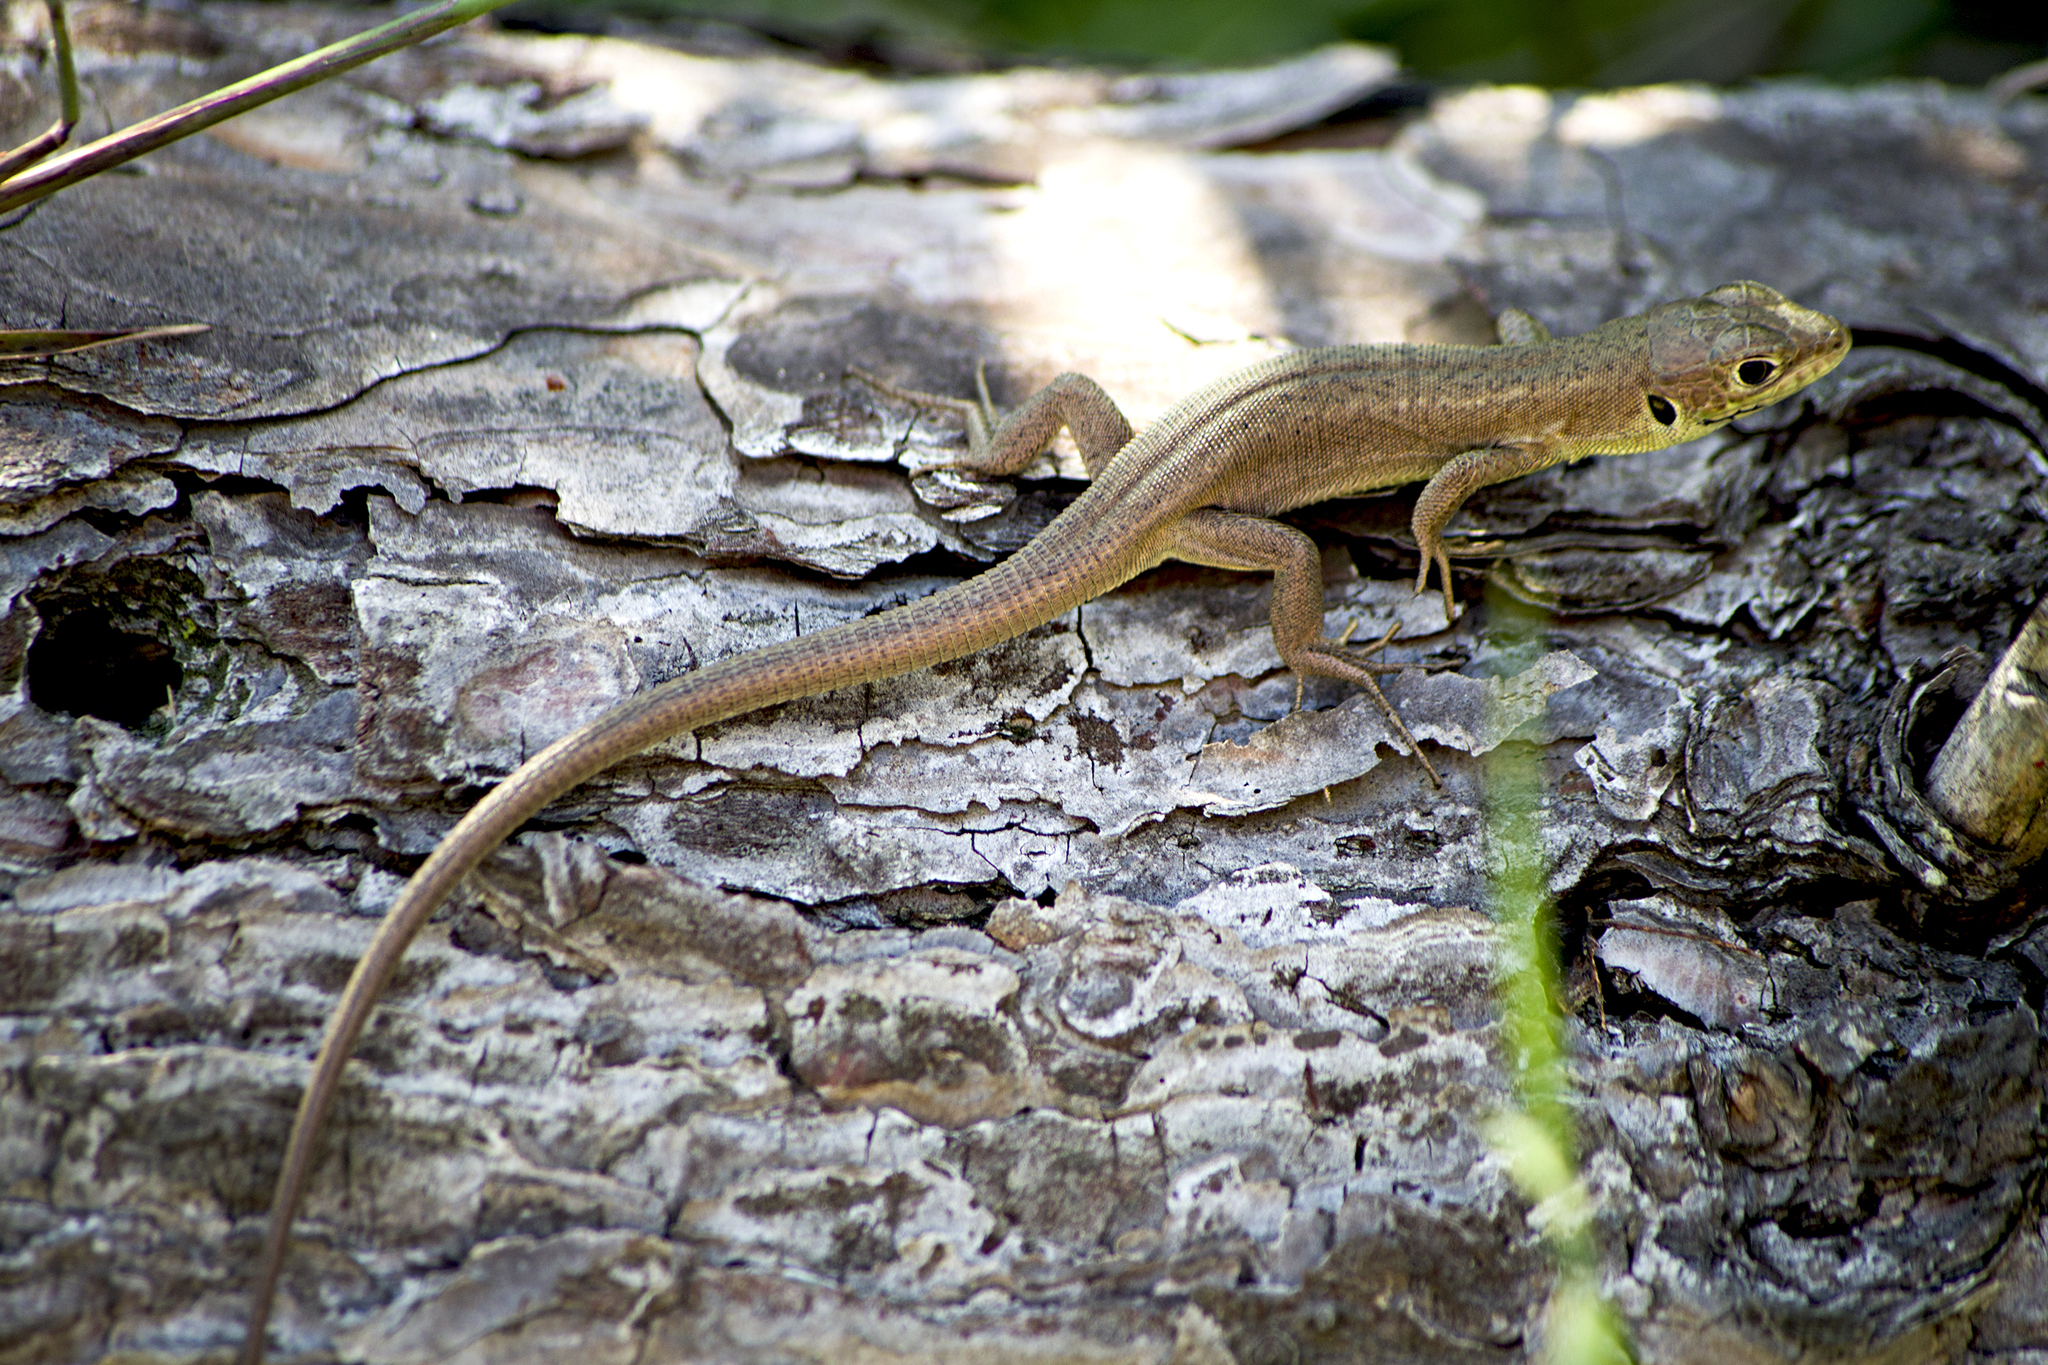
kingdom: Animalia
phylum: Chordata
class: Squamata
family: Lacertidae
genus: Lacerta
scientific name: Lacerta viridis
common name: European green lizard
